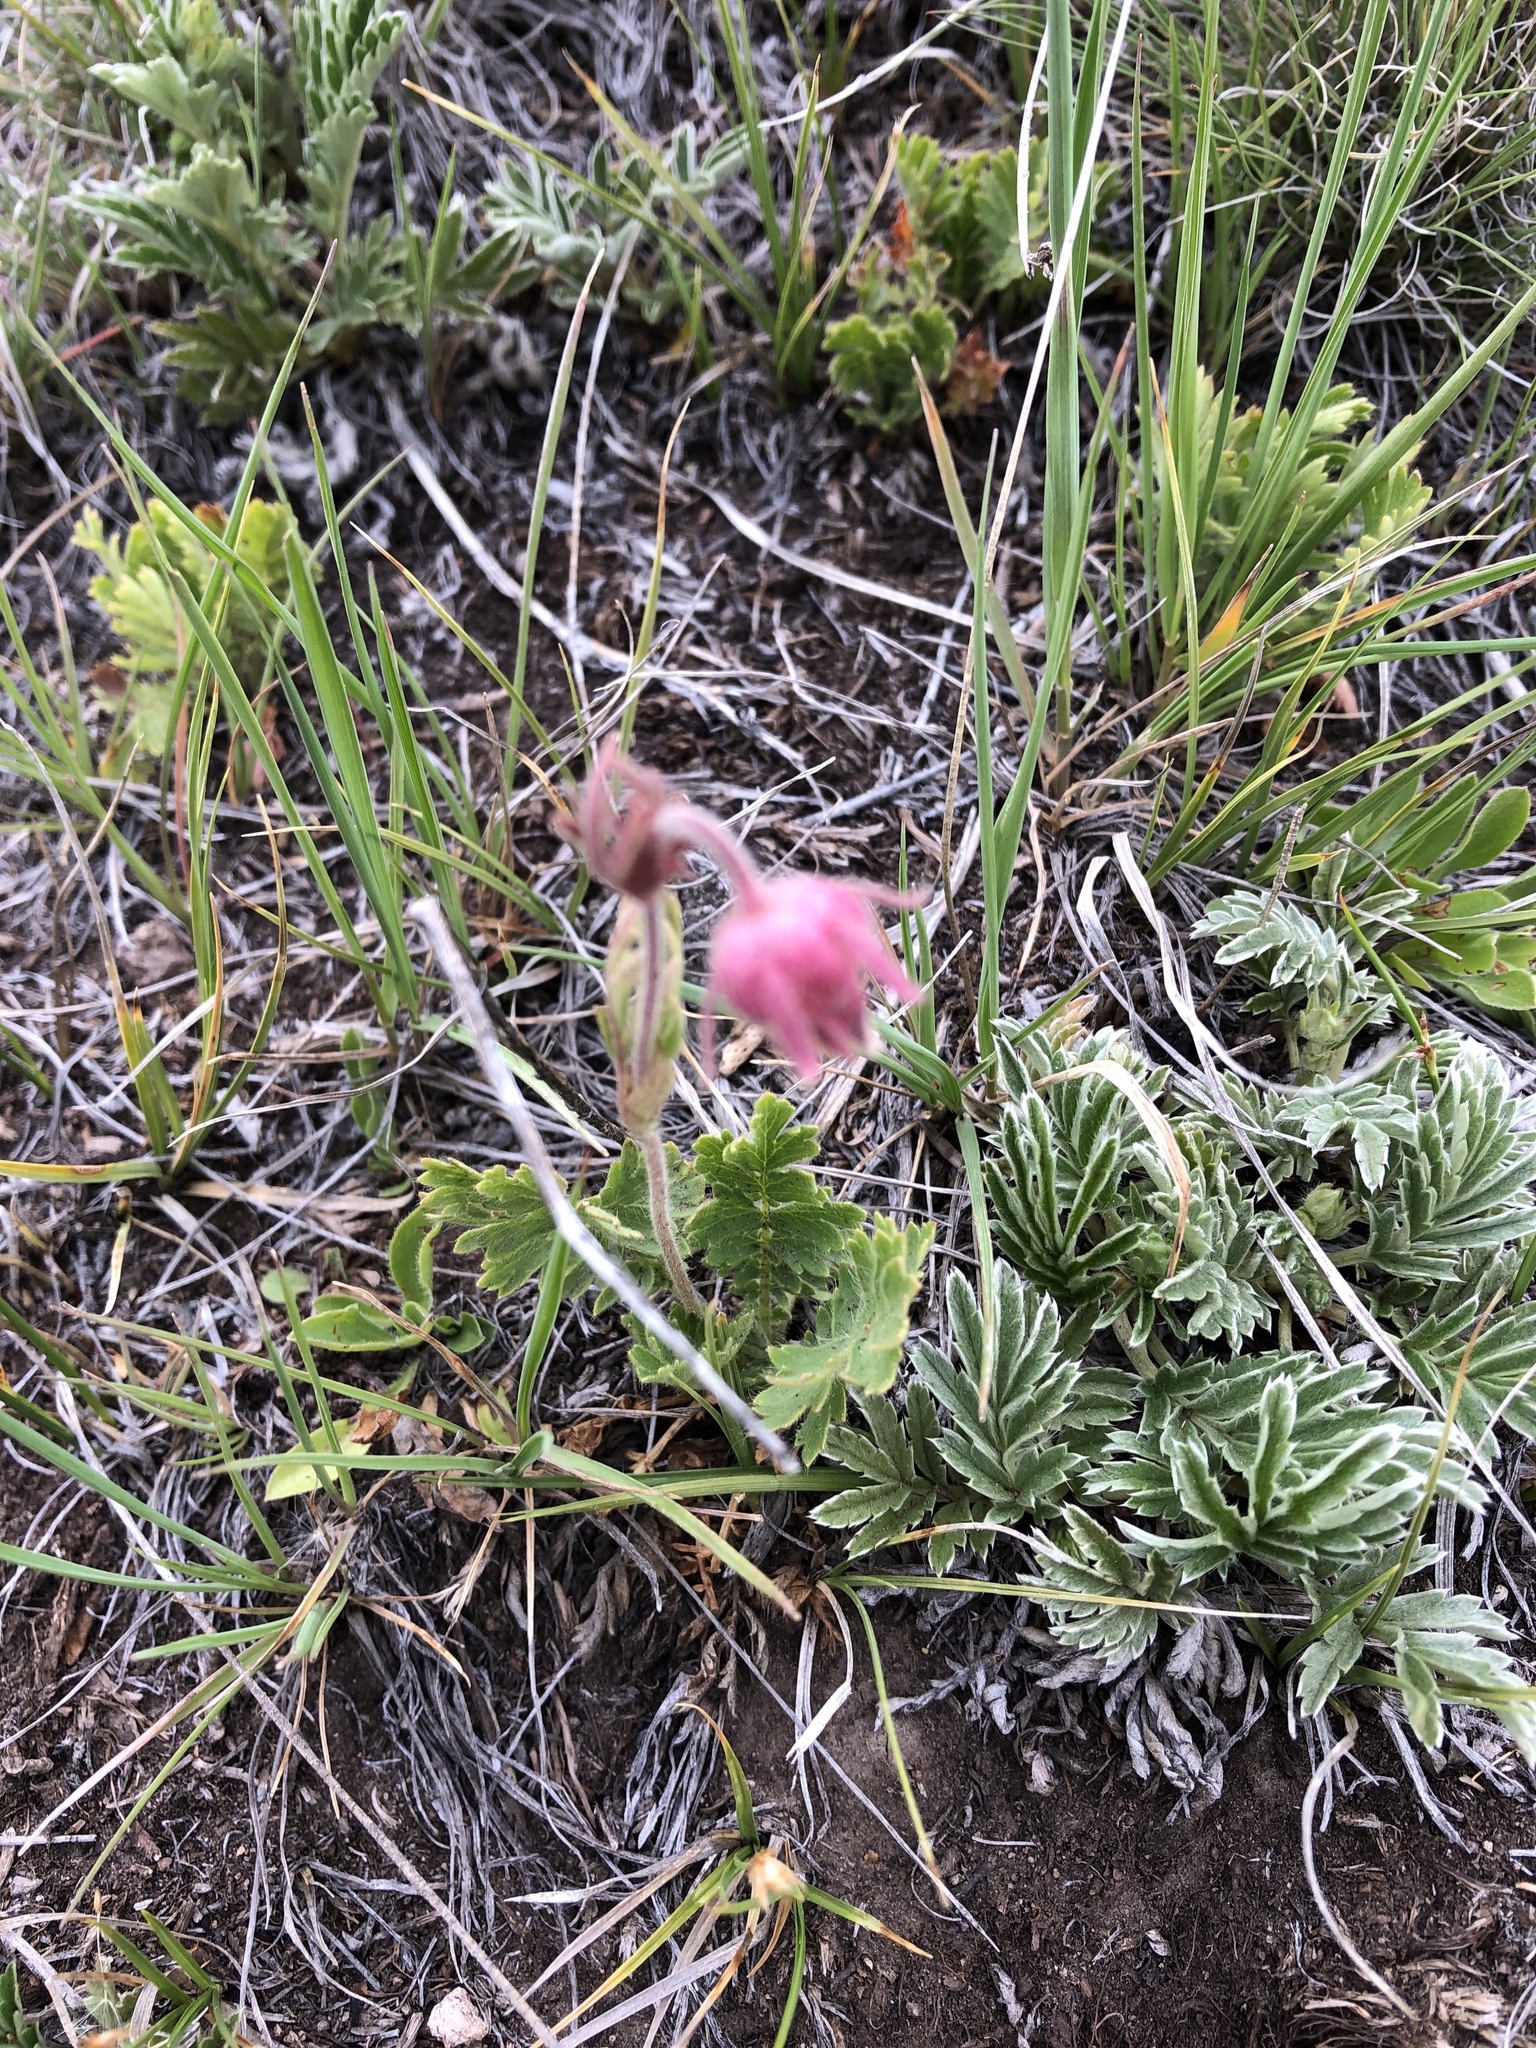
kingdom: Plantae
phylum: Tracheophyta
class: Magnoliopsida
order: Rosales
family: Rosaceae
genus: Geum
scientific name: Geum triflorum
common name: Old man's whiskers
